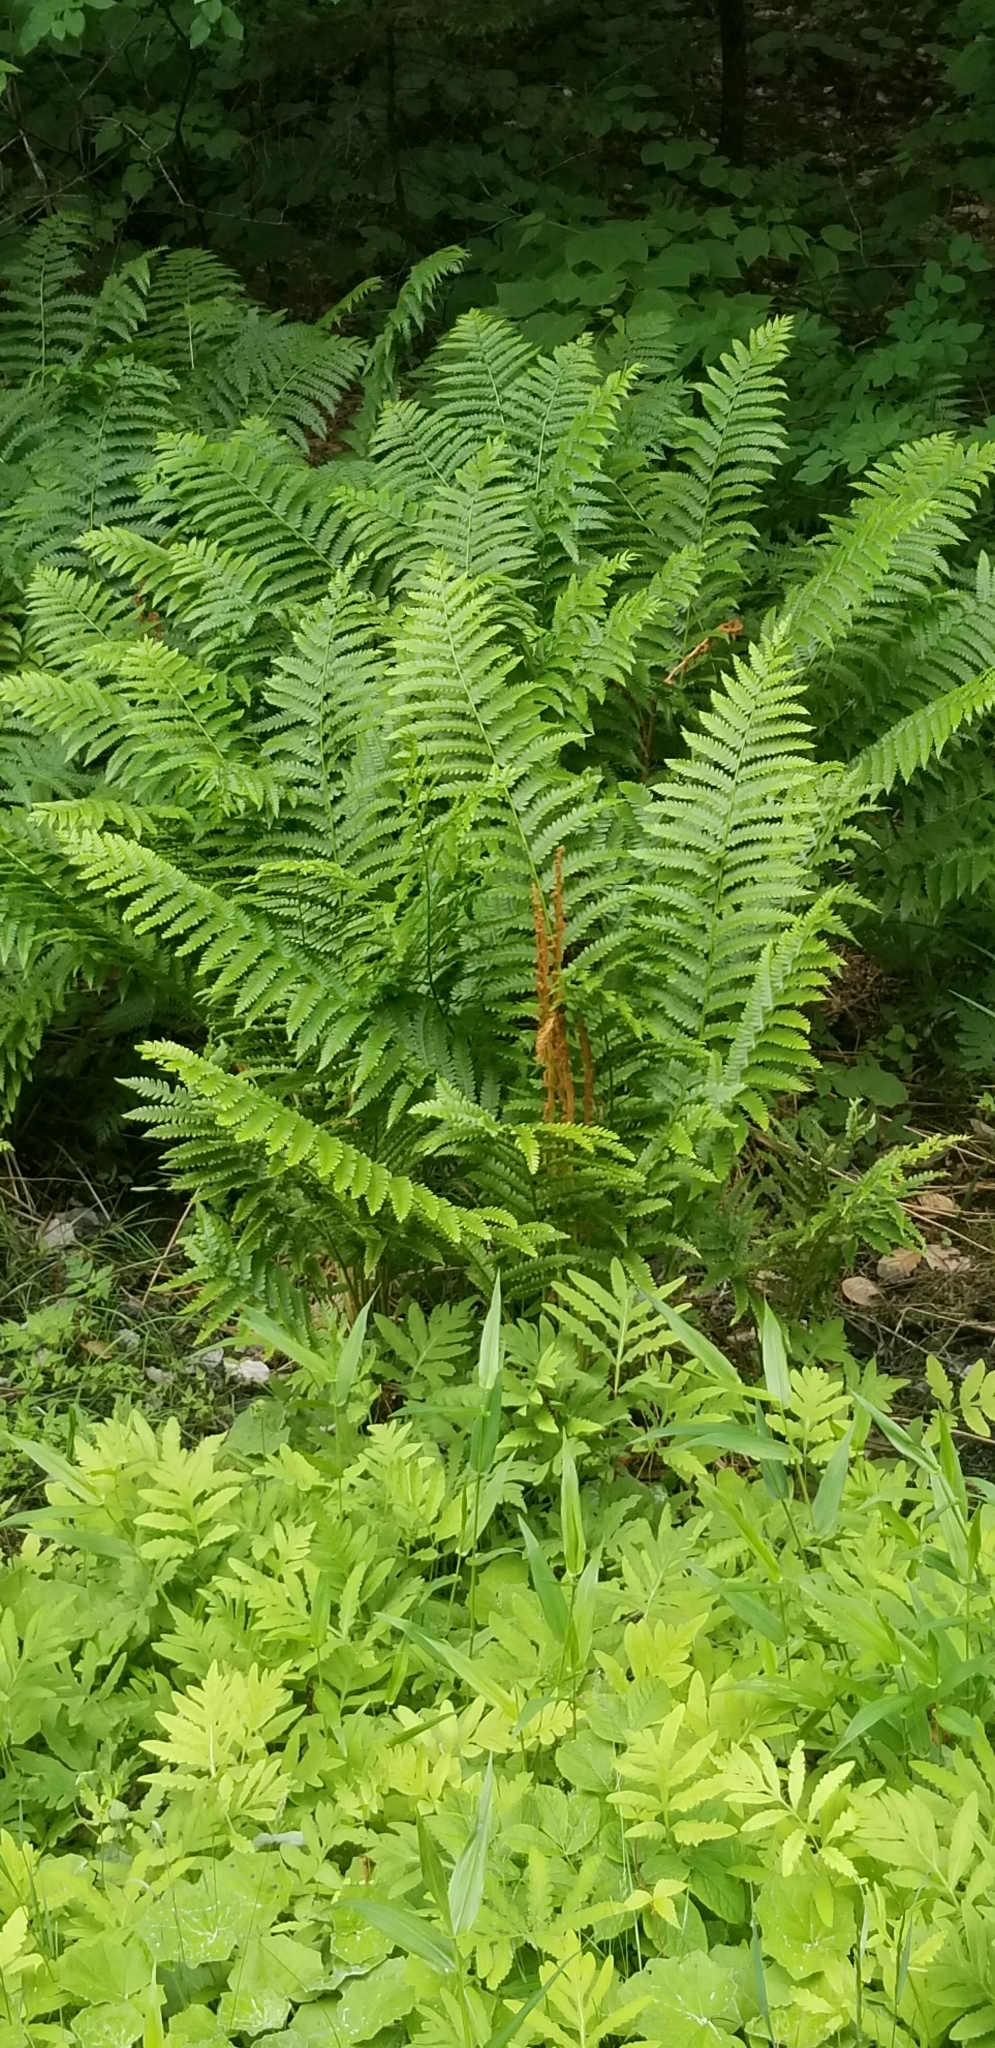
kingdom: Plantae
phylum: Tracheophyta
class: Polypodiopsida
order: Osmundales
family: Osmundaceae
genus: Osmundastrum
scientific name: Osmundastrum cinnamomeum
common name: Cinnamon fern
